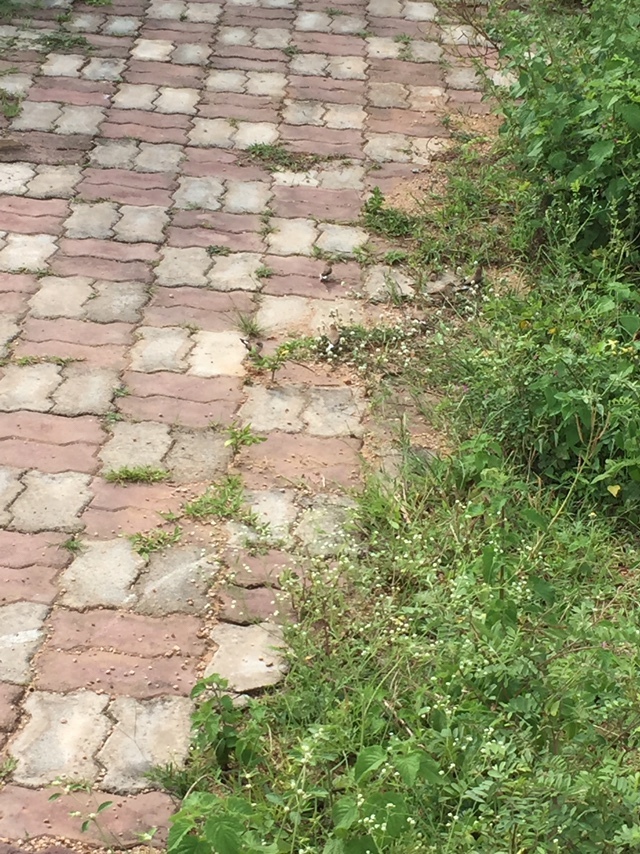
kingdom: Animalia
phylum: Chordata
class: Aves
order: Passeriformes
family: Estrildidae
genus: Euodice
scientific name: Euodice malabarica
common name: Indian silverbill
